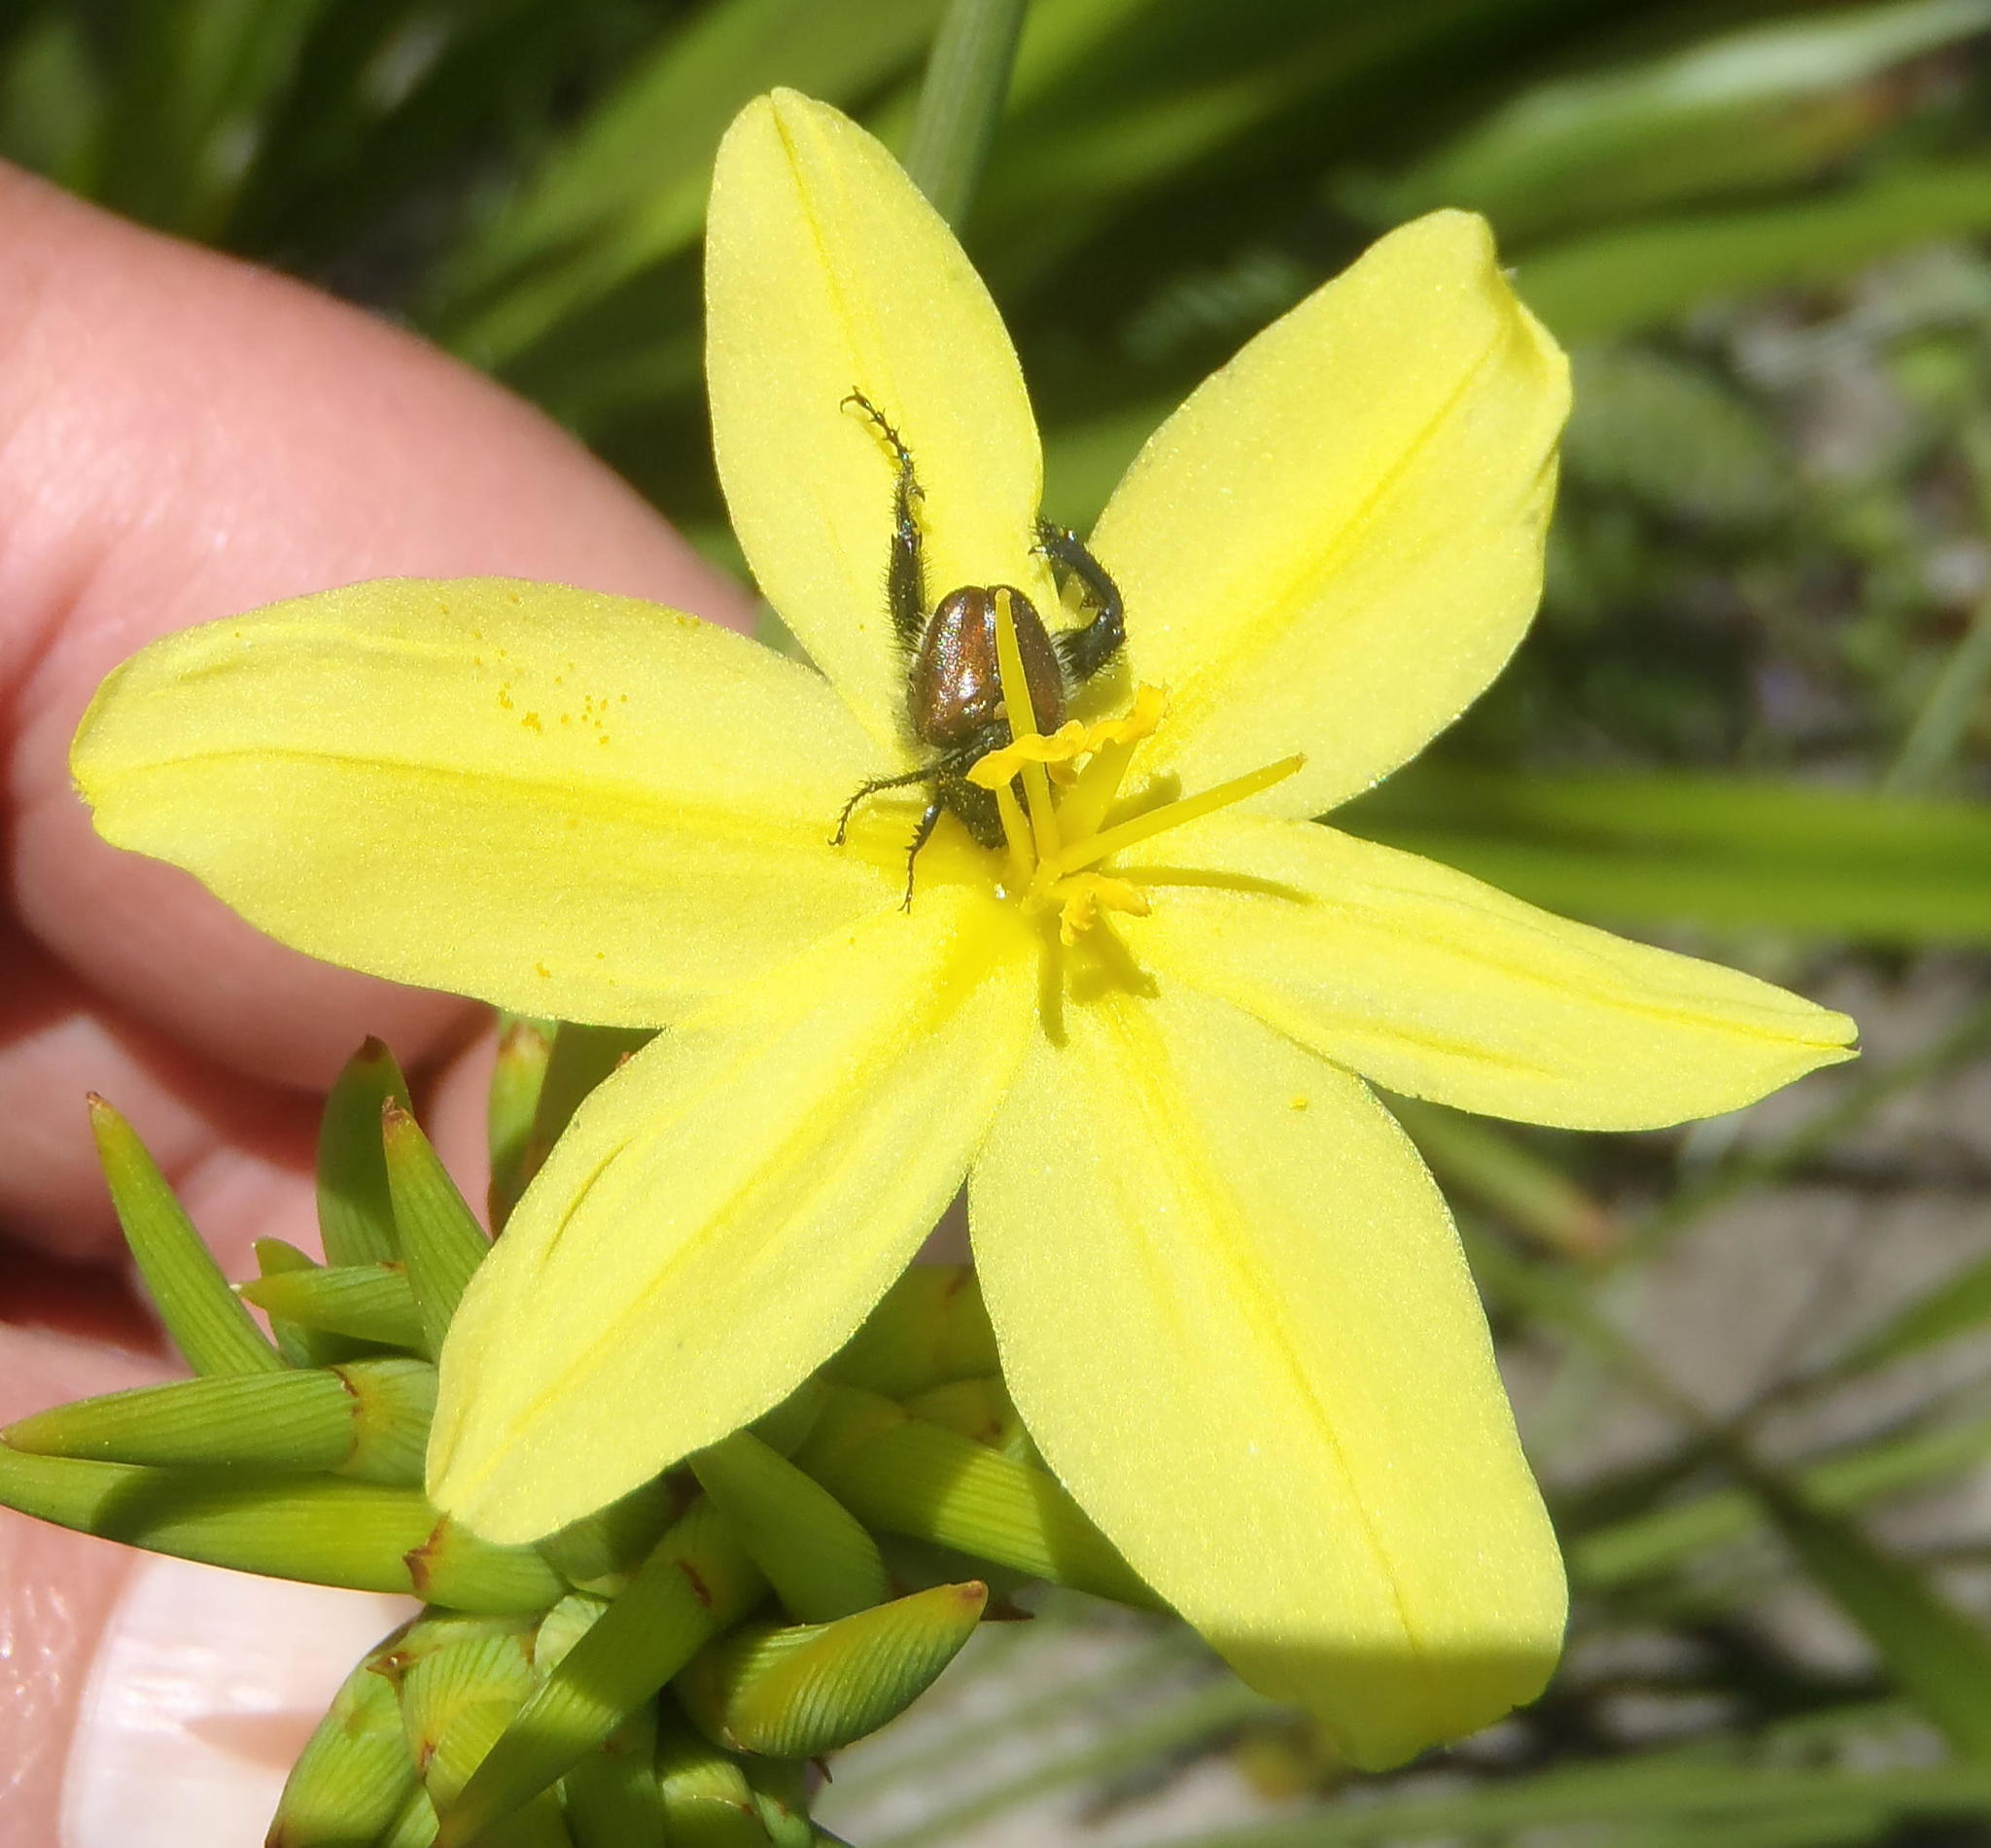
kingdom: Plantae
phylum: Tracheophyta
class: Liliopsida
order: Asparagales
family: Iridaceae
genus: Bobartia
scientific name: Bobartia indica
